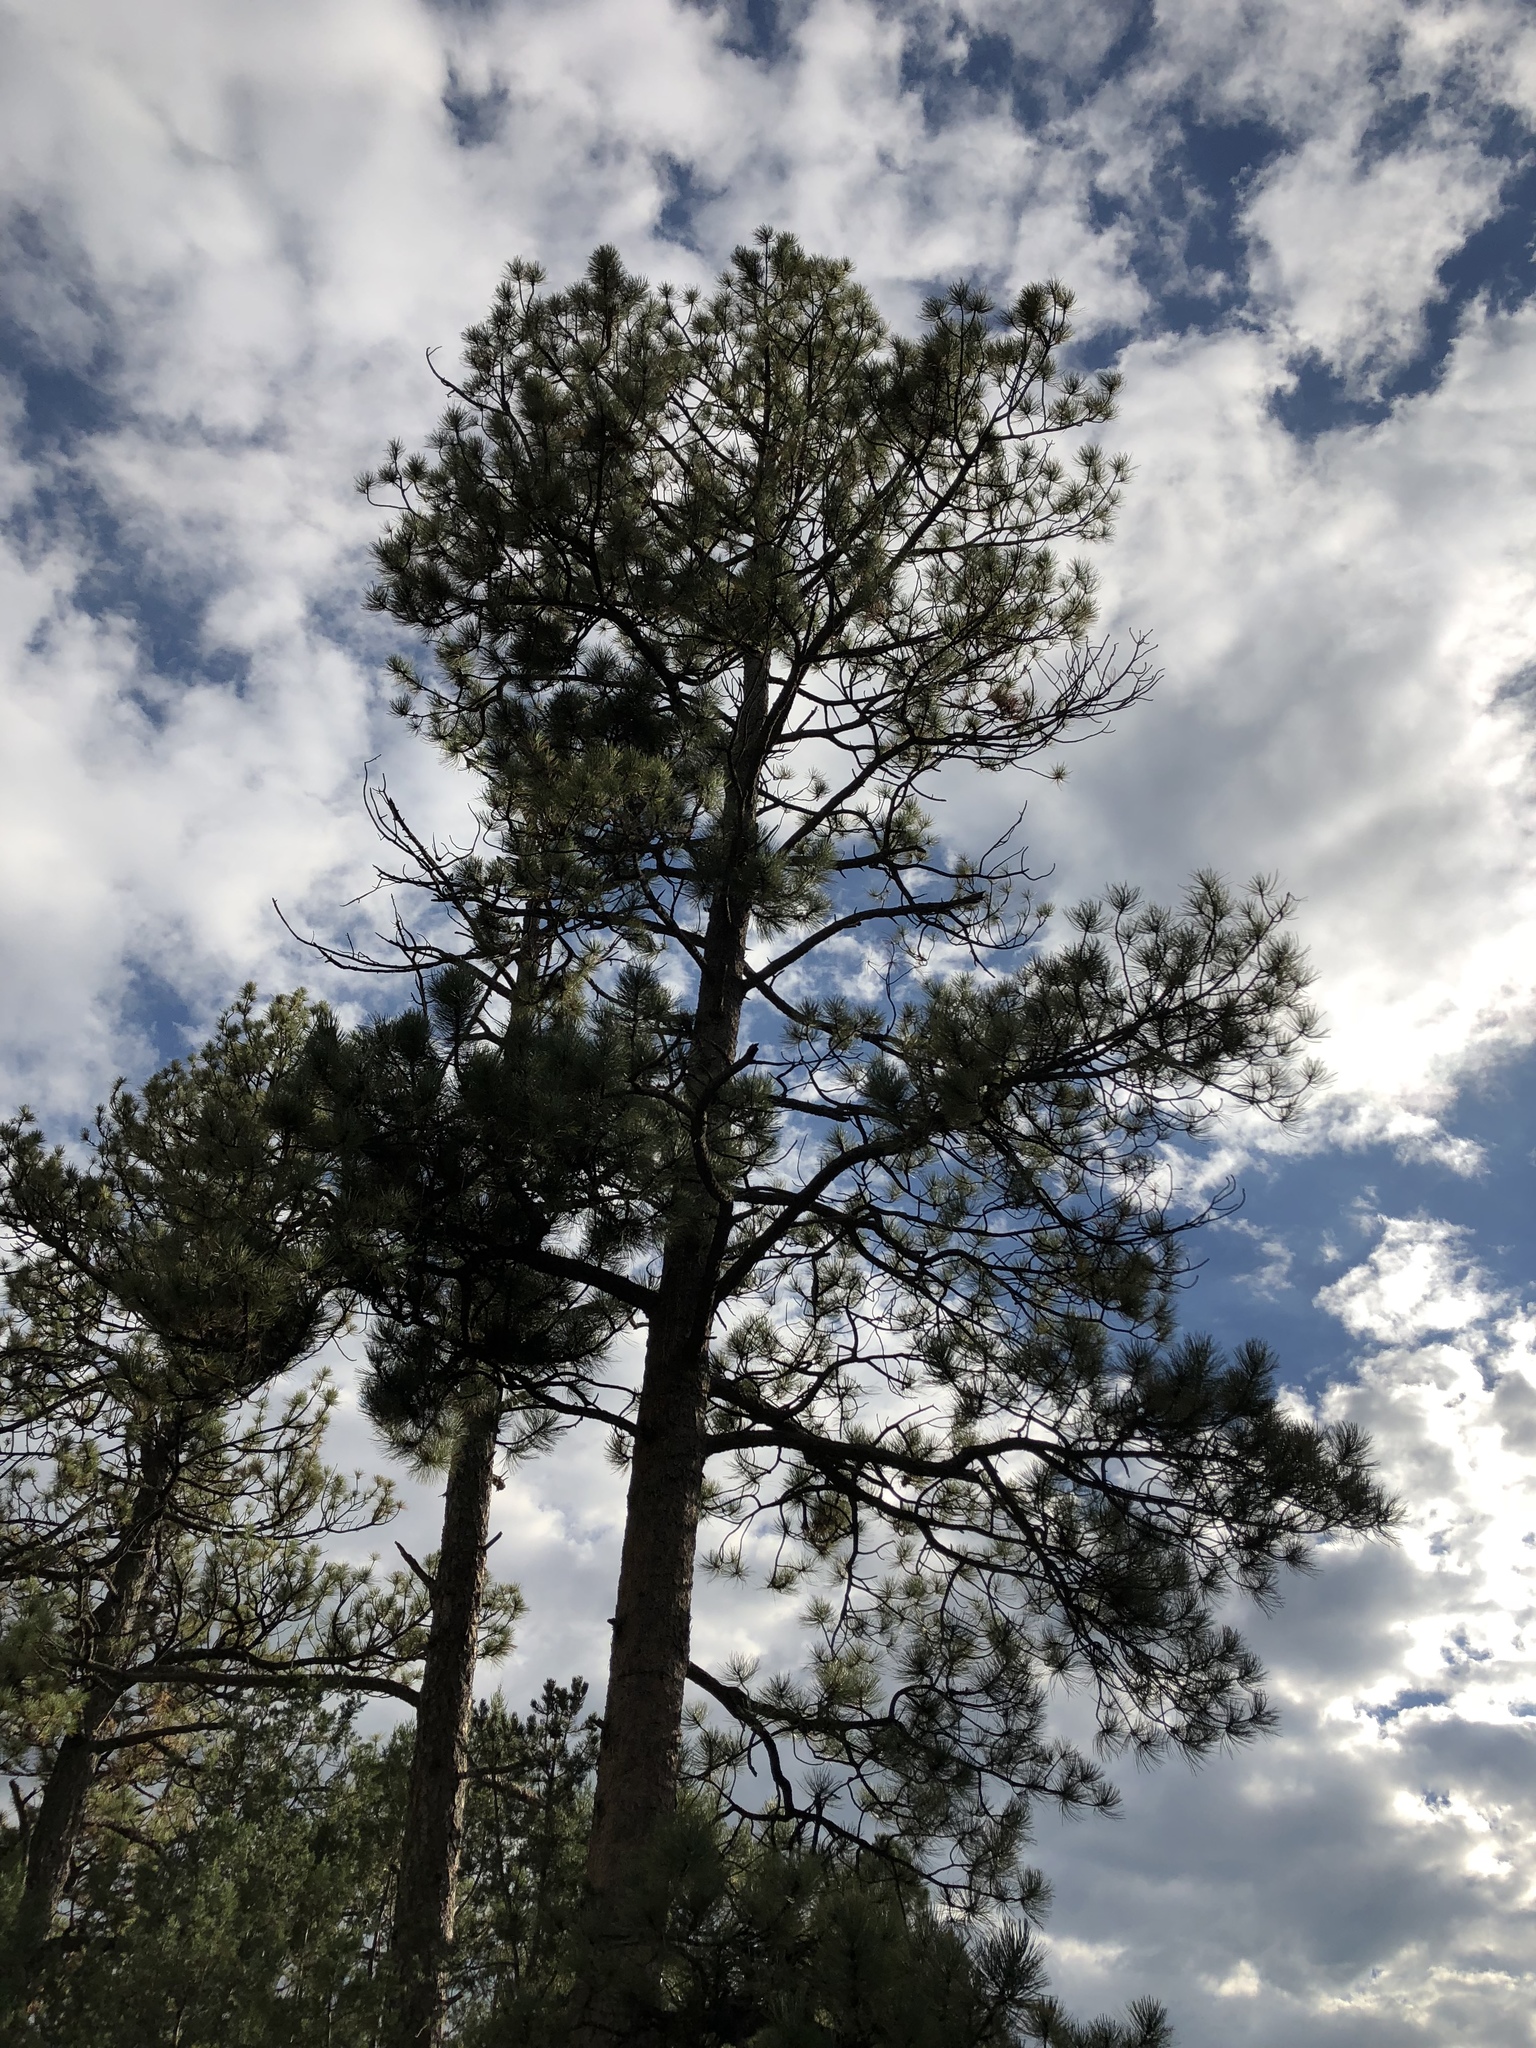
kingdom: Plantae
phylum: Tracheophyta
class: Pinopsida
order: Pinales
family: Pinaceae
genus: Pinus
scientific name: Pinus ponderosa
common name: Western yellow-pine
